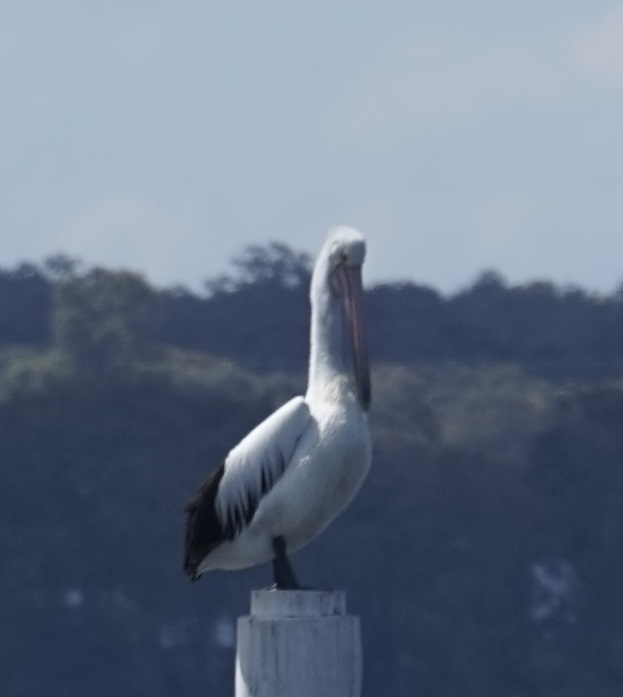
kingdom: Animalia
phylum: Chordata
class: Aves
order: Pelecaniformes
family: Pelecanidae
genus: Pelecanus
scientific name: Pelecanus conspicillatus
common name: Australian pelican
